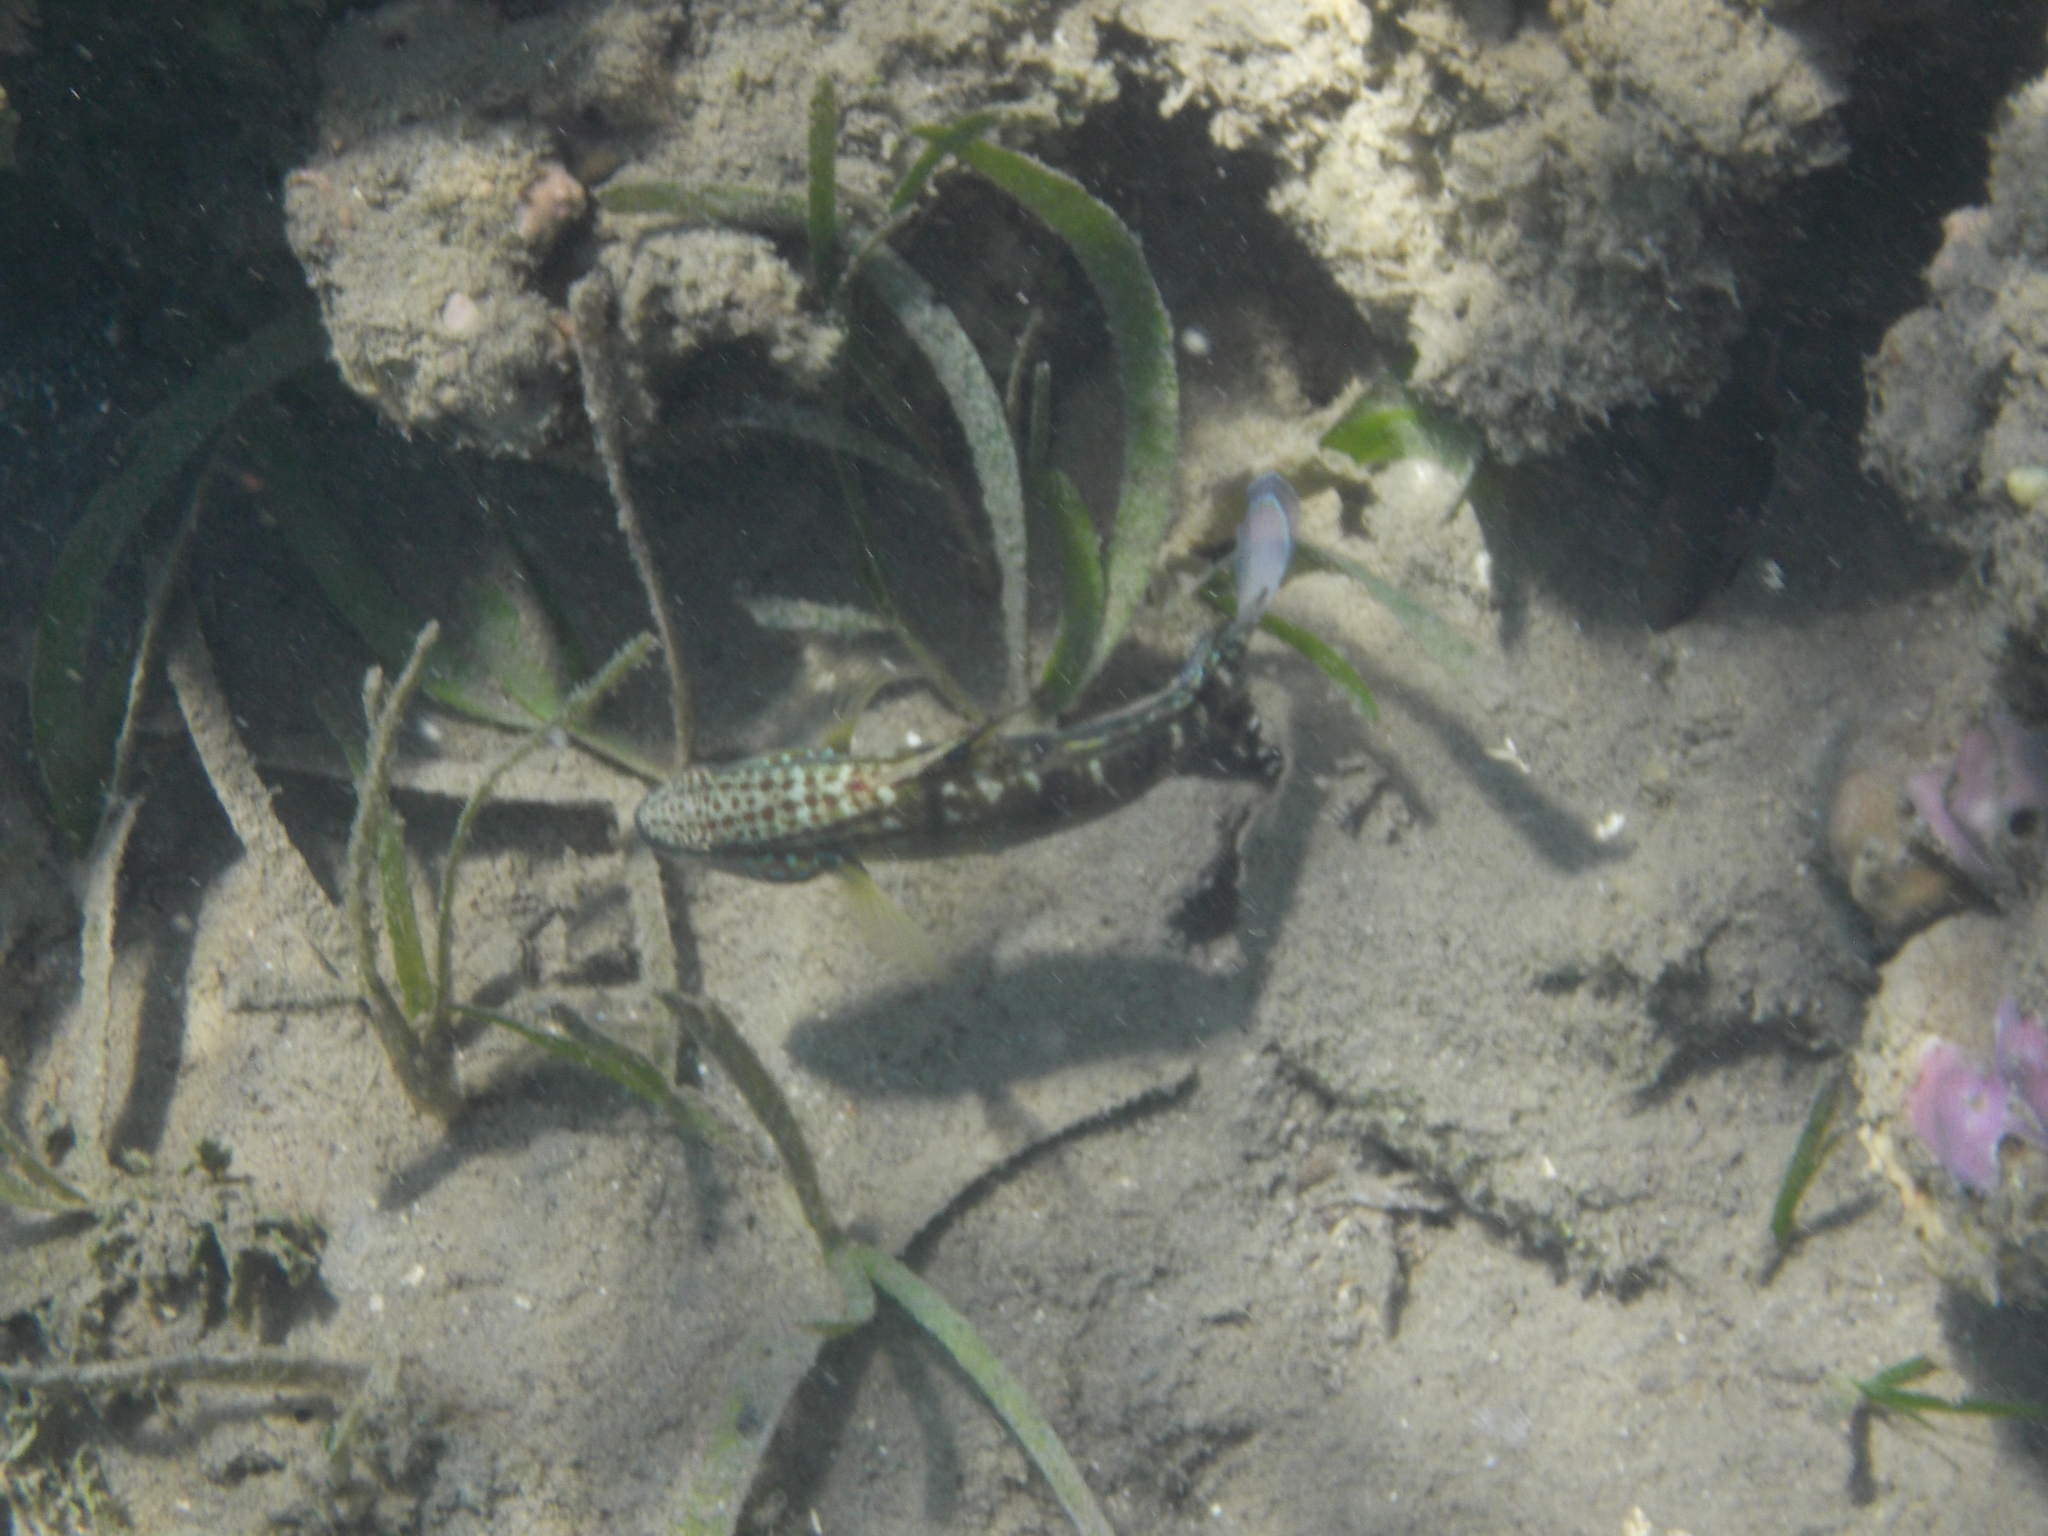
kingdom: Animalia
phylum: Chordata
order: Perciformes
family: Gobiidae
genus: Amblygobius
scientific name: Amblygobius phalaena
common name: Banded goby
